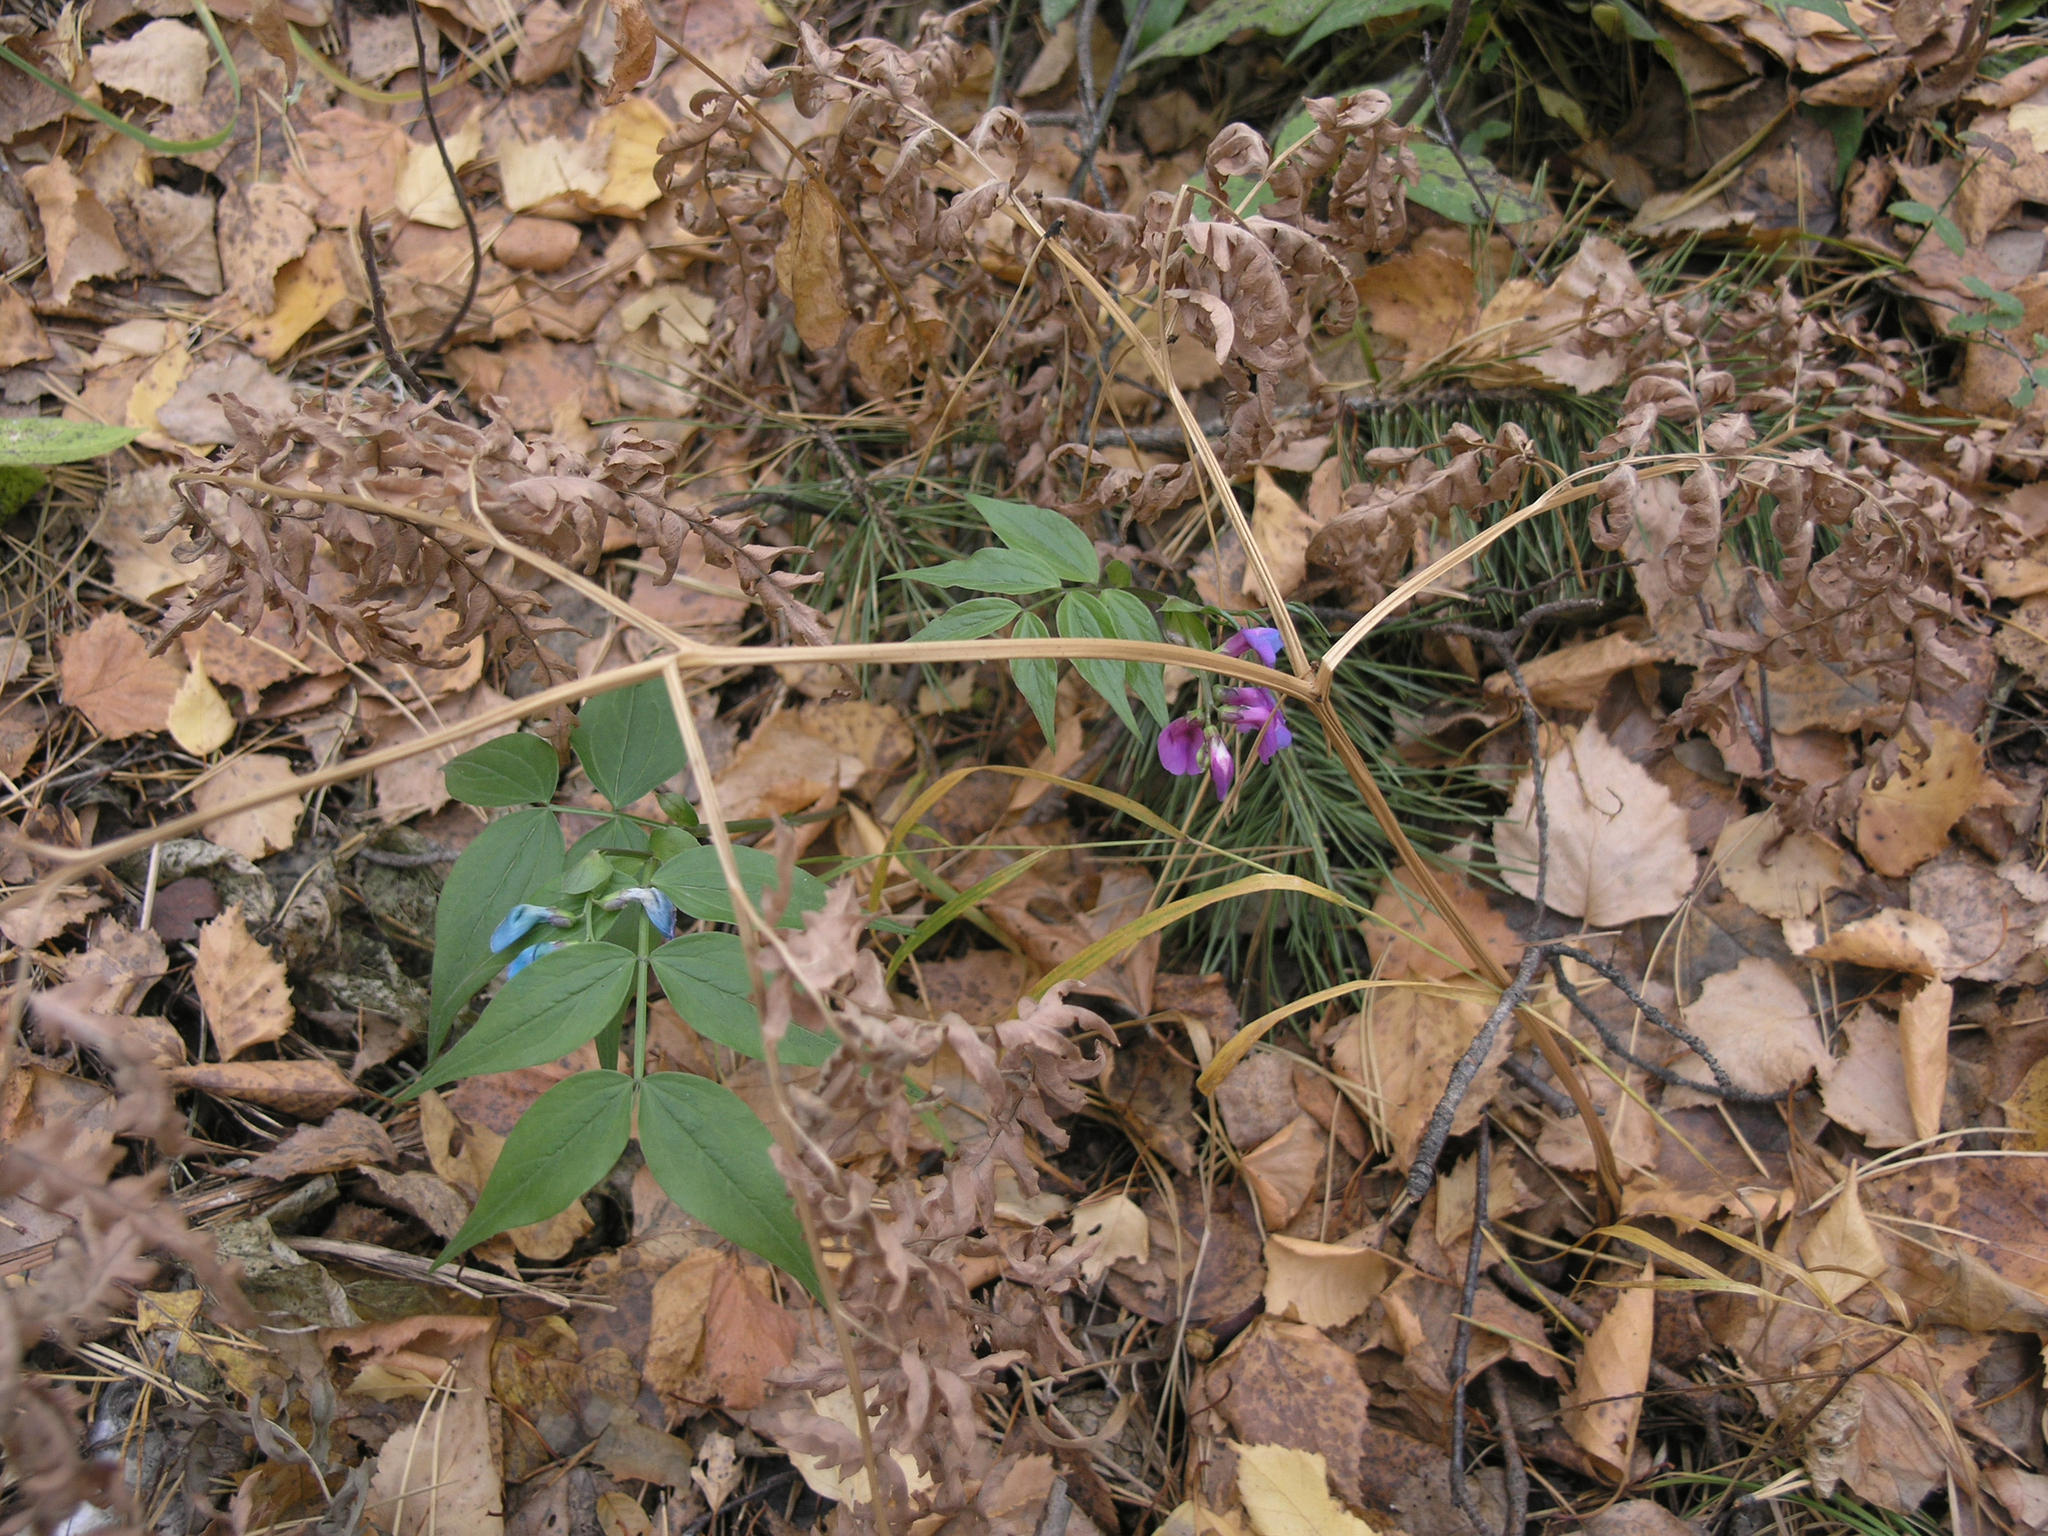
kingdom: Plantae
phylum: Tracheophyta
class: Magnoliopsida
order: Fabales
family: Fabaceae
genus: Lathyrus
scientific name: Lathyrus vernus
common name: Spring pea
